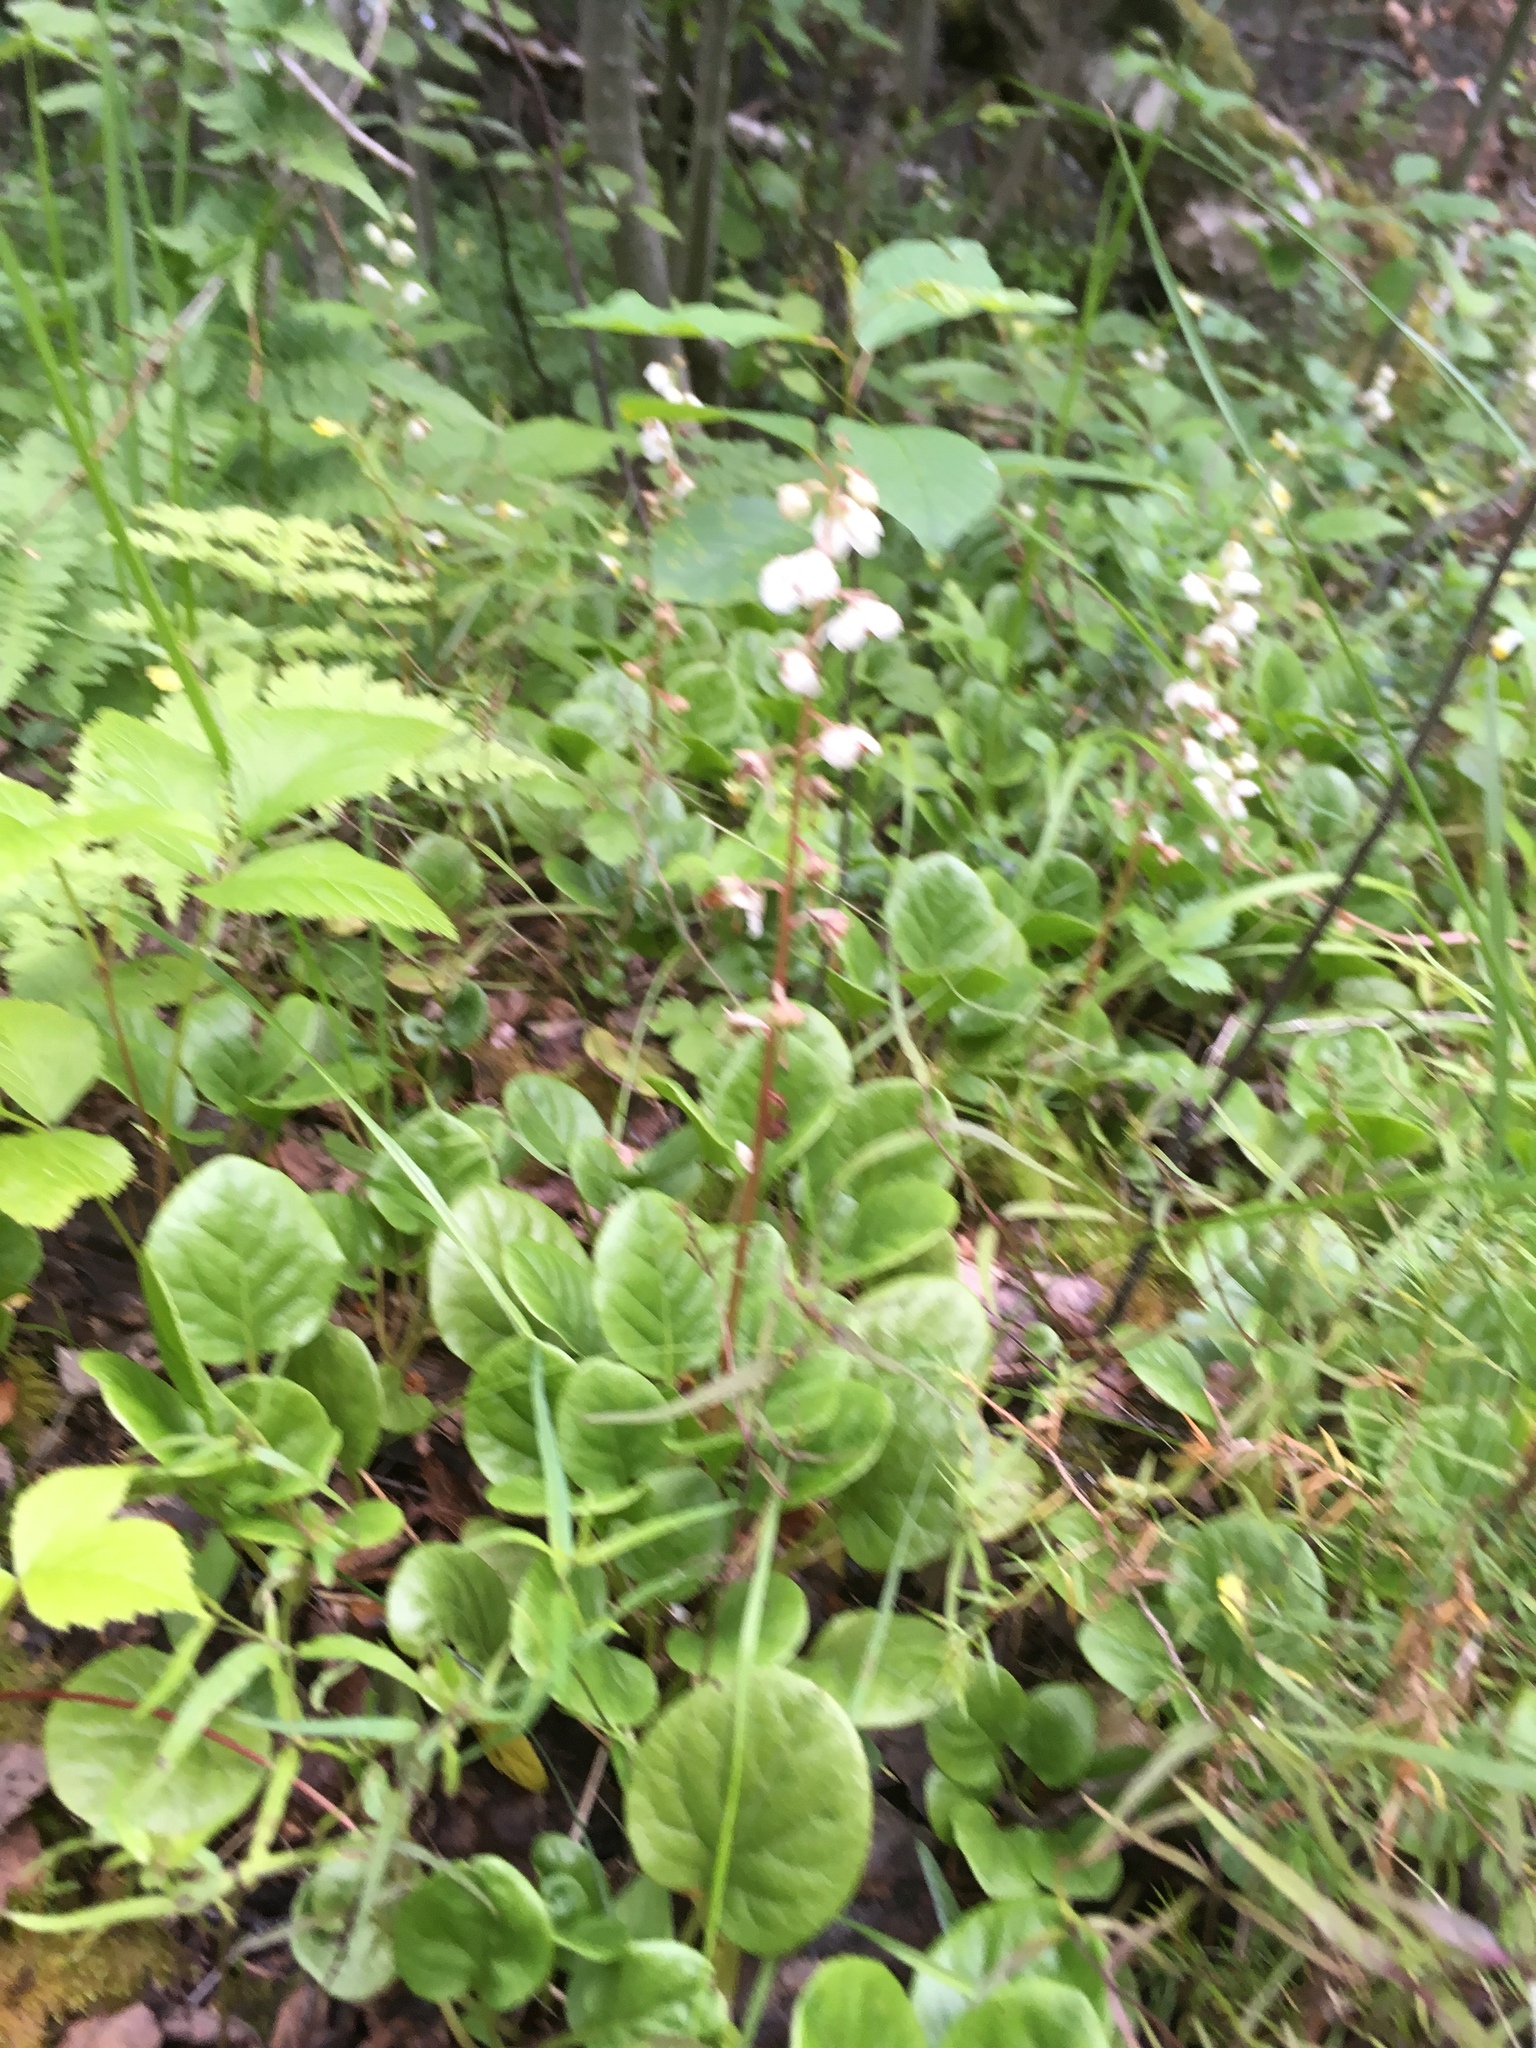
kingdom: Plantae
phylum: Tracheophyta
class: Magnoliopsida
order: Ericales
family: Ericaceae
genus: Pyrola
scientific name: Pyrola rotundifolia
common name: Round-leaved wintergreen
